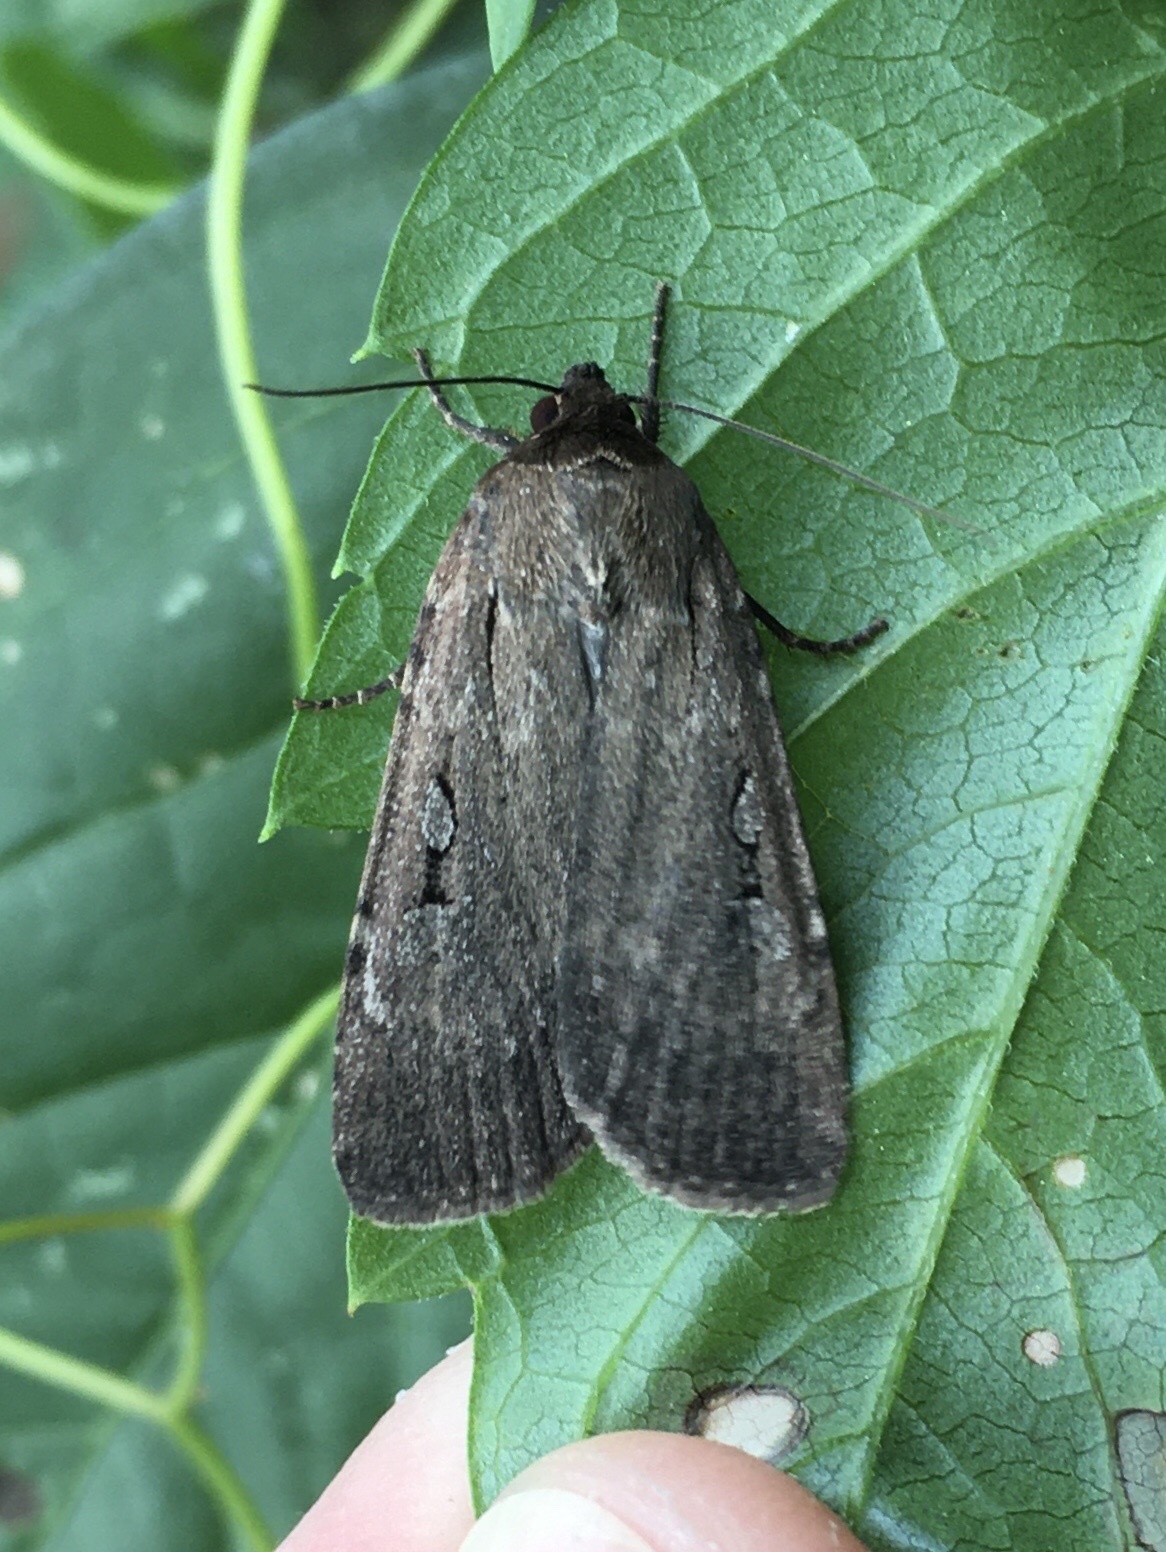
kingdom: Animalia
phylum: Arthropoda
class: Insecta
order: Lepidoptera
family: Noctuidae
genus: Spaelotis
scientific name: Spaelotis clandestina
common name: Clandestine dart
